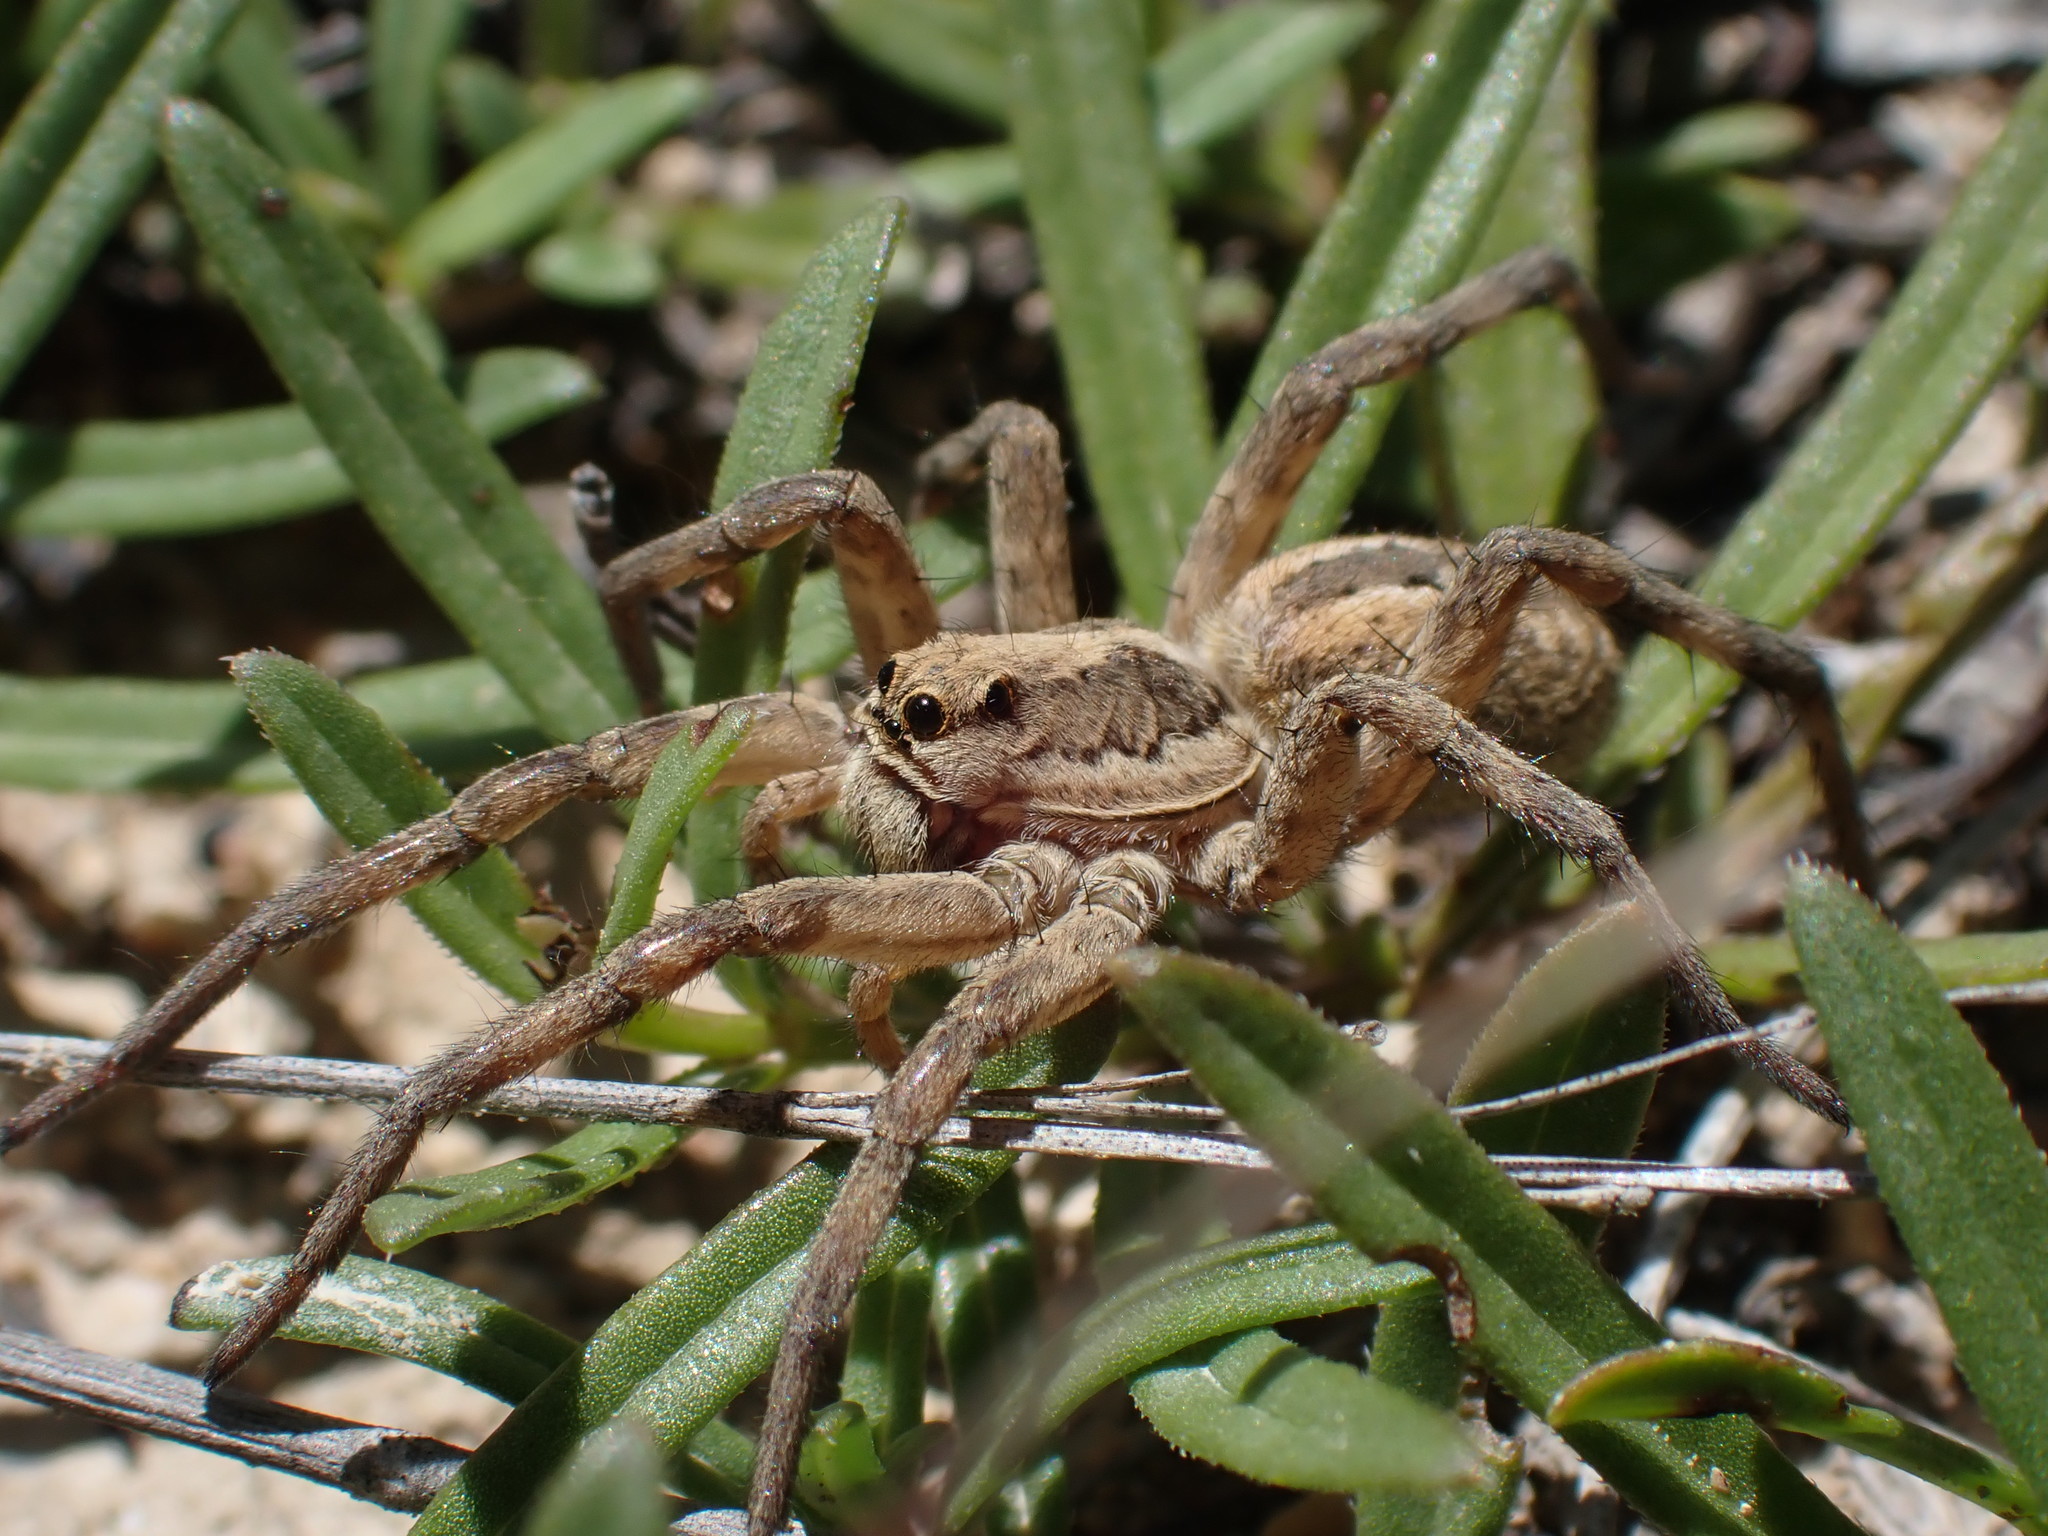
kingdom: Animalia
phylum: Arthropoda
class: Arachnida
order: Araneae
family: Lycosidae
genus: Lycosa
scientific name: Lycosa tarantula
